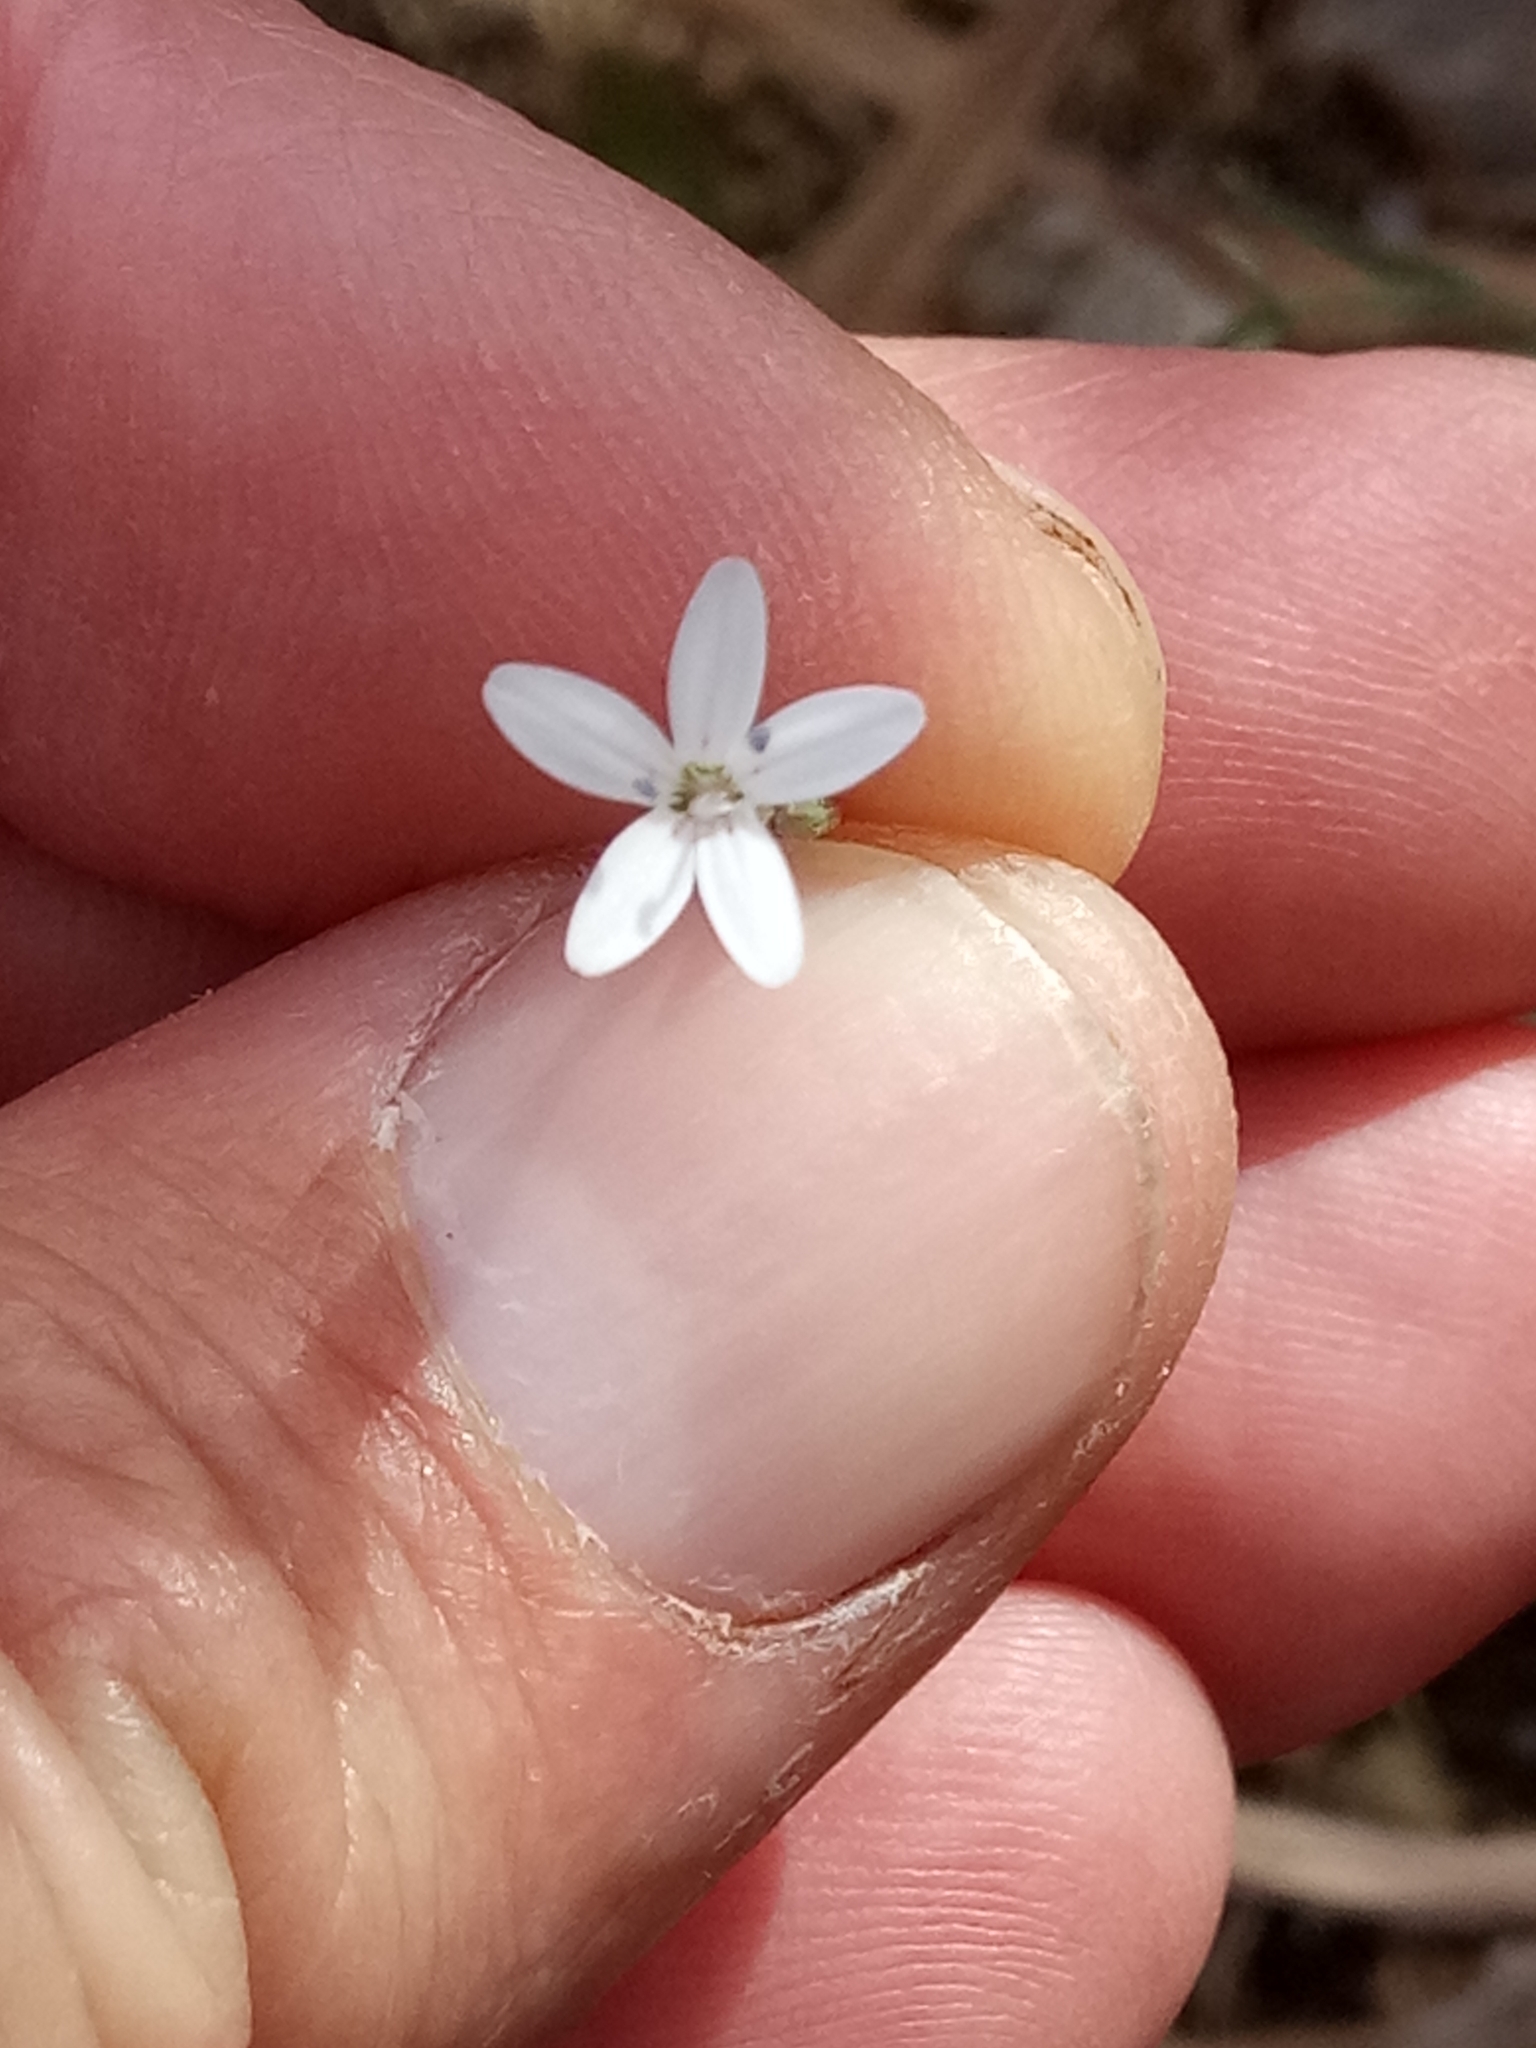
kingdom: Plantae
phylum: Tracheophyta
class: Magnoliopsida
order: Caryophyllales
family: Caryophyllaceae
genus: Dianthus
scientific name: Dianthus illyricus
